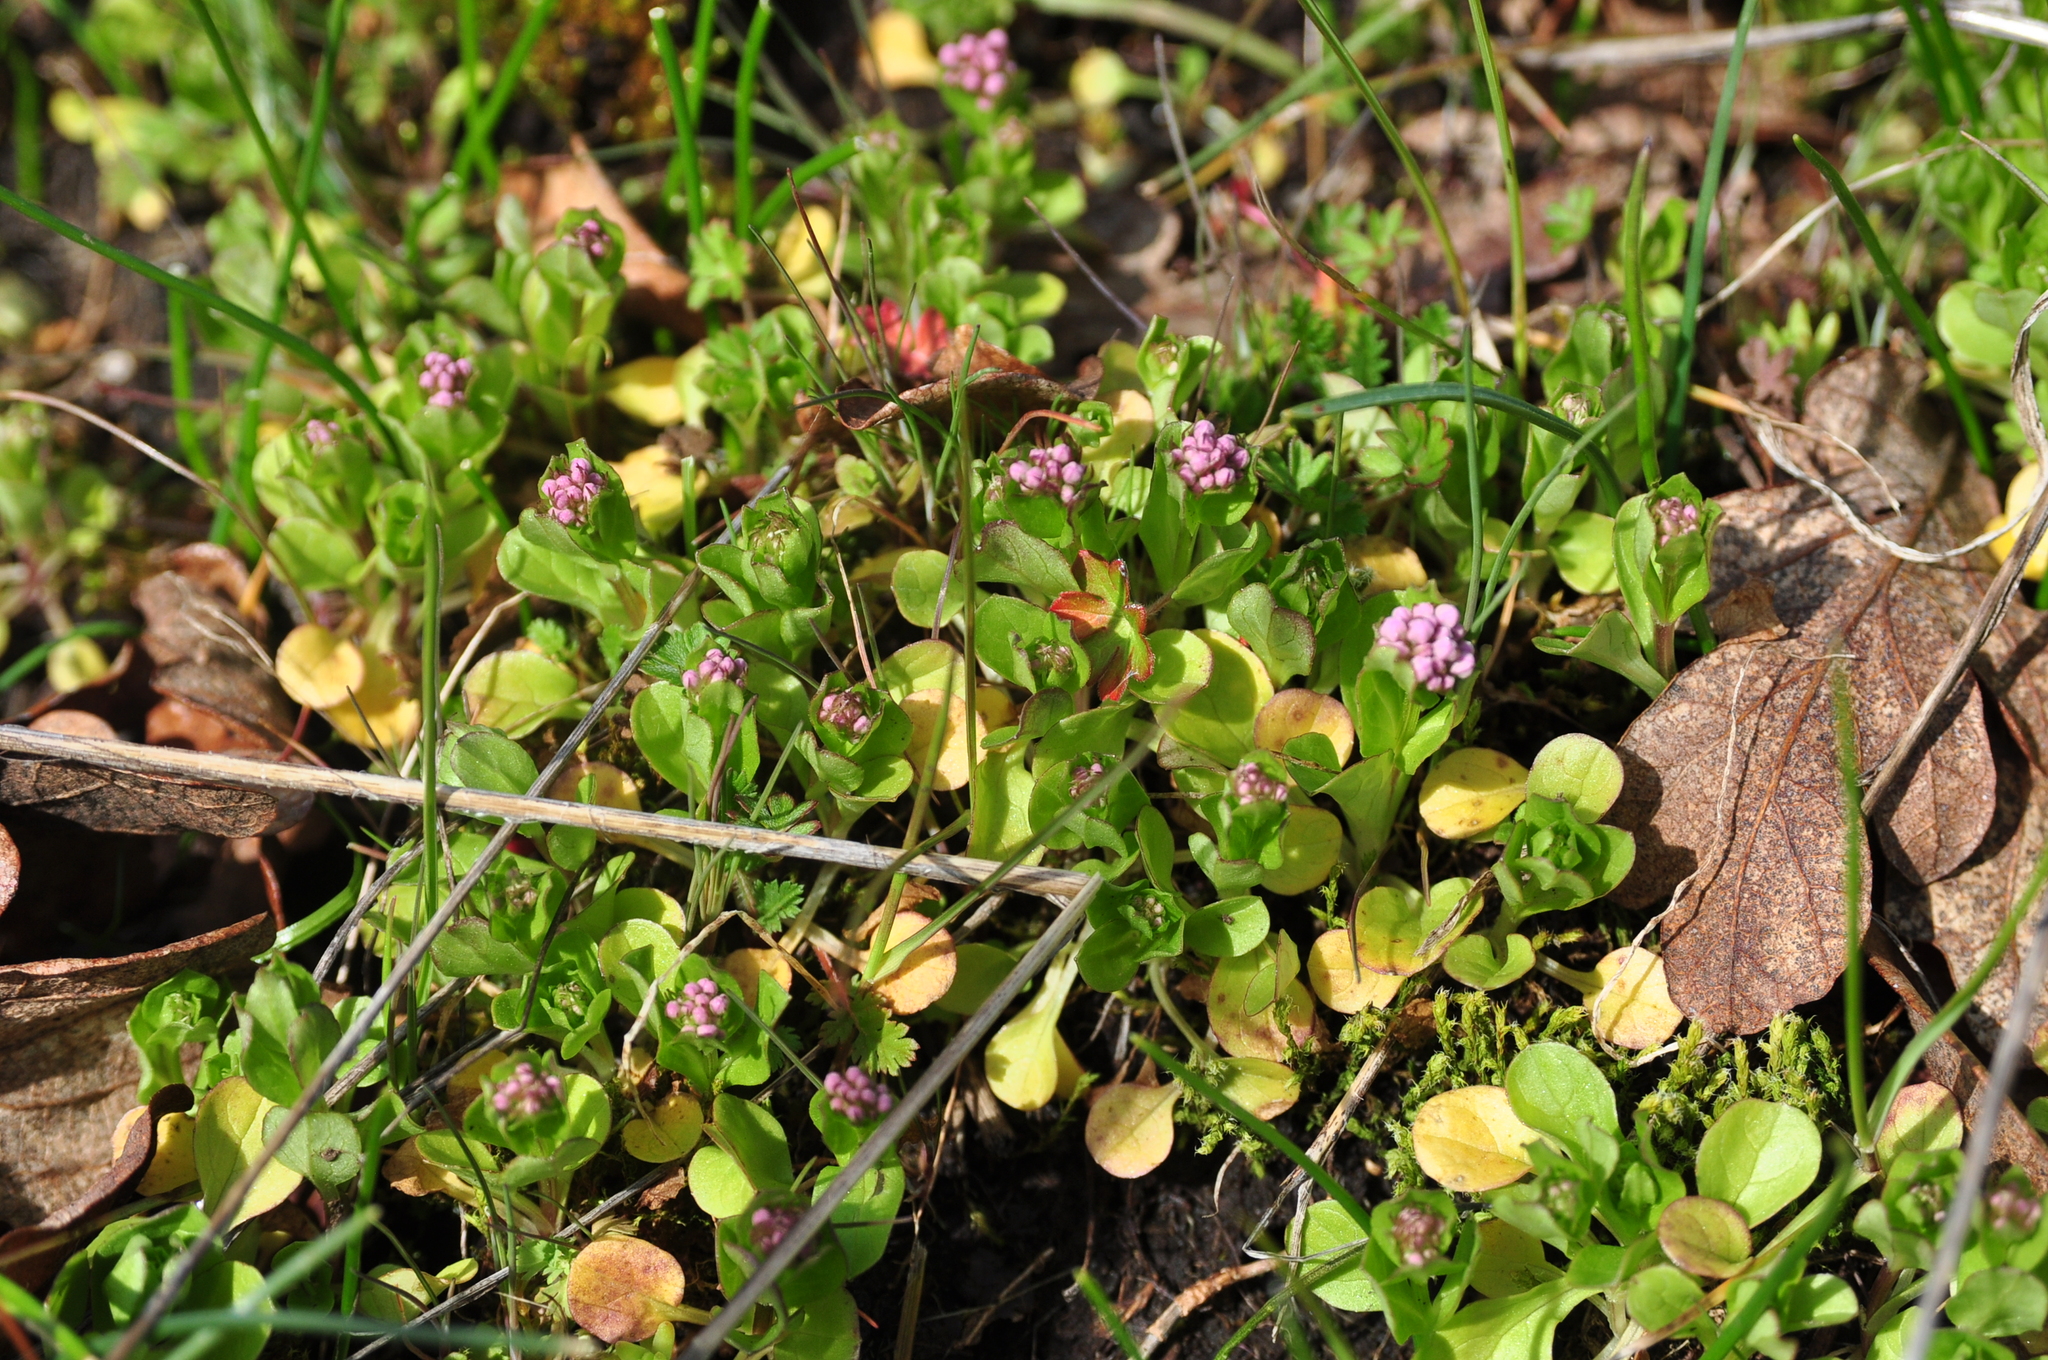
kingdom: Plantae
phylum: Tracheophyta
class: Magnoliopsida
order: Dipsacales
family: Caprifoliaceae
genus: Plectritis
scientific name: Plectritis congesta
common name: Pink plectritis
